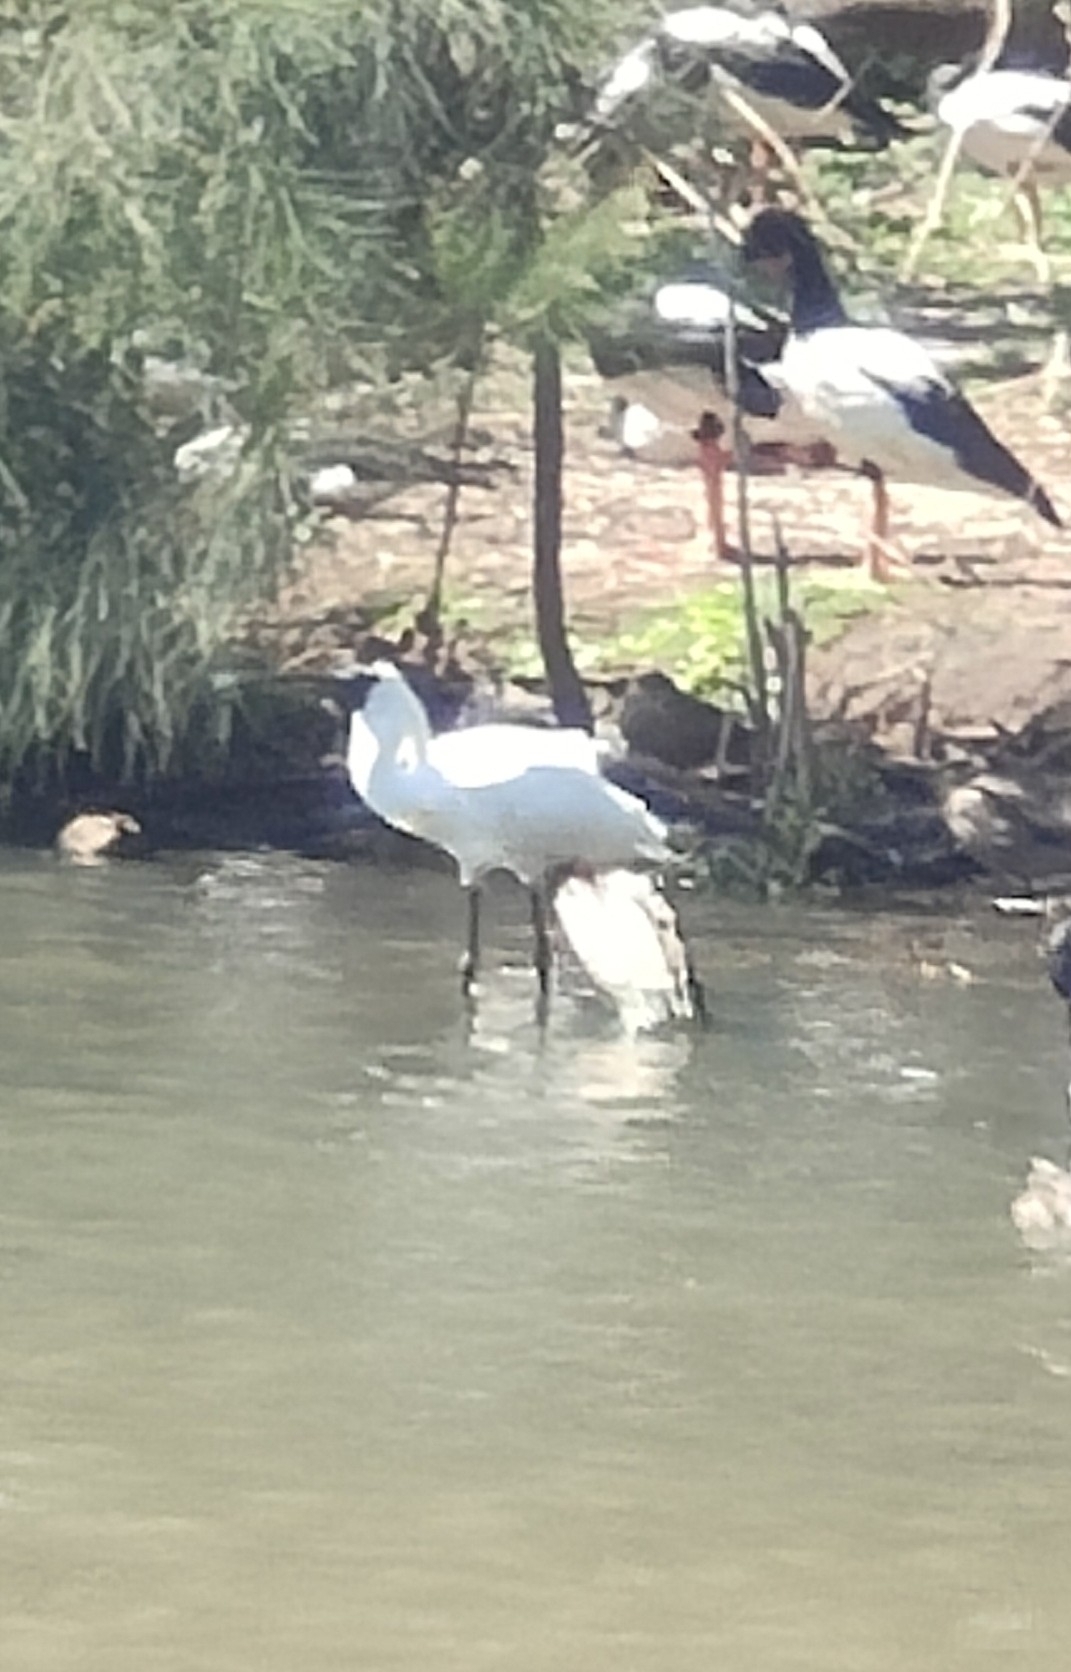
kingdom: Animalia
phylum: Chordata
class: Aves
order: Pelecaniformes
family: Threskiornithidae
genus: Platalea
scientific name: Platalea regia
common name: Royal spoonbill
